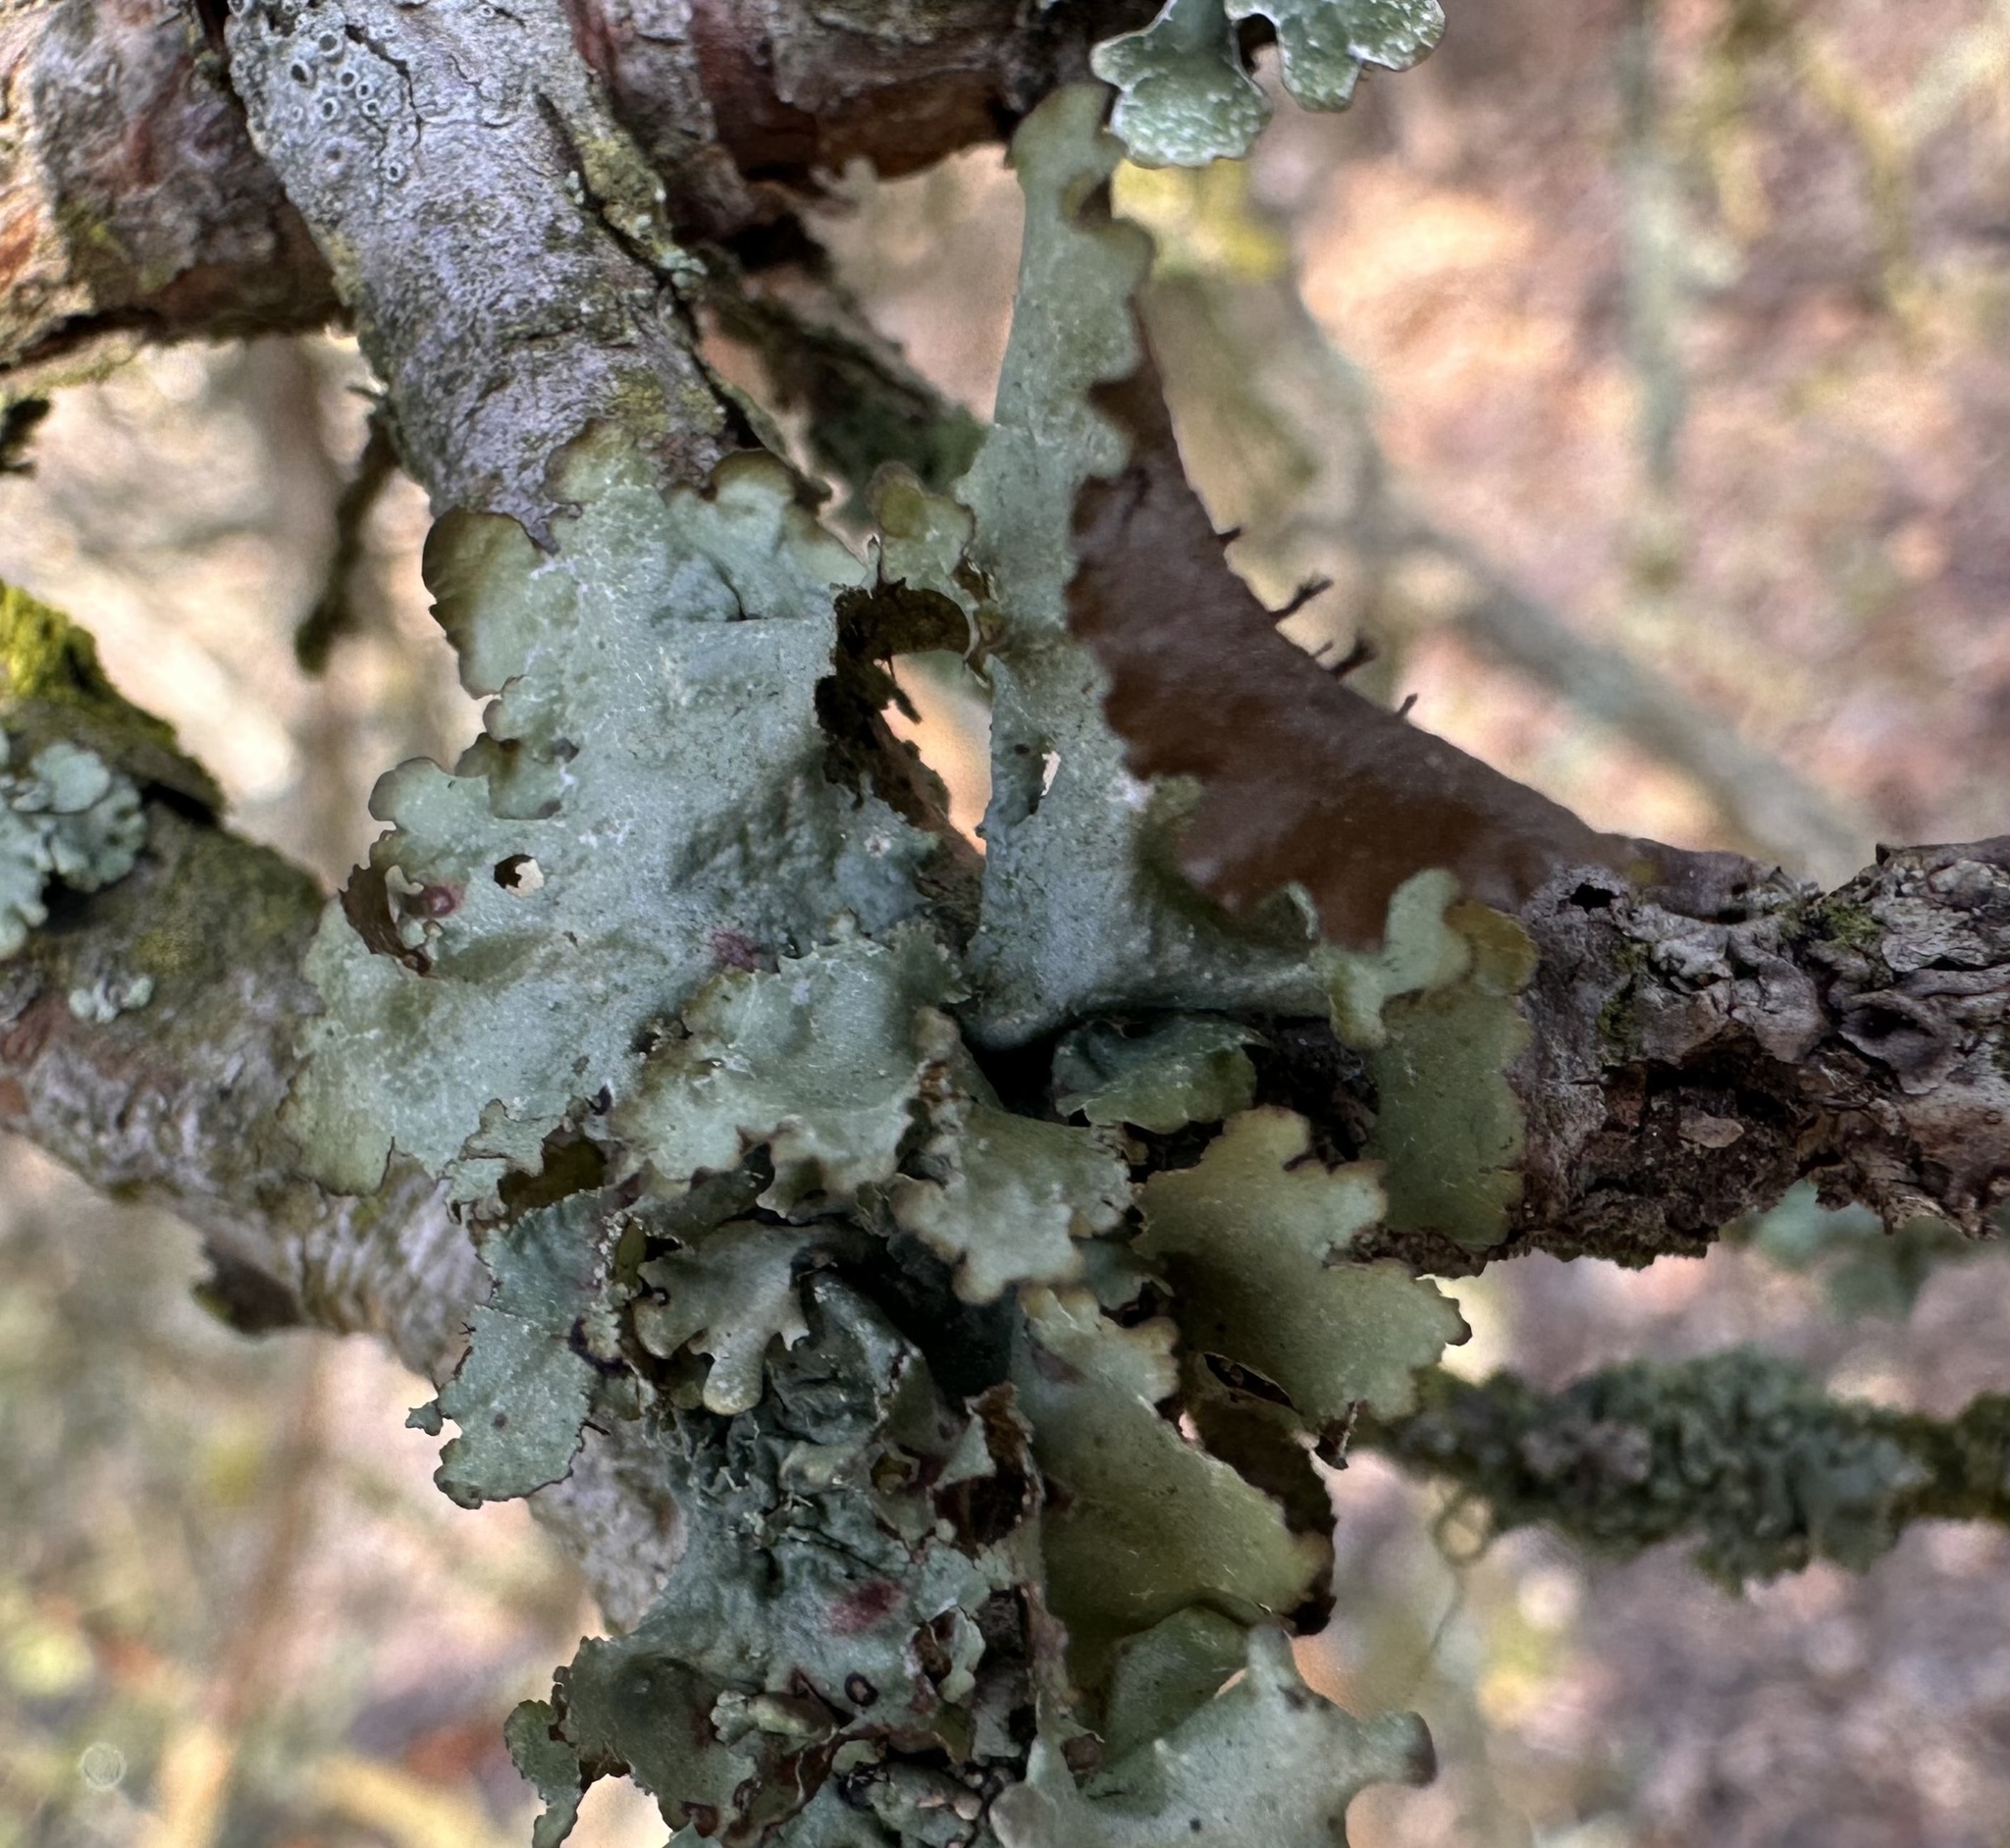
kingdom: Fungi
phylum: Ascomycota
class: Lecanoromycetes
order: Lecanorales
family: Parmeliaceae
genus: Platismatia
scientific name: Platismatia glauca
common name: Varied rag lichen
